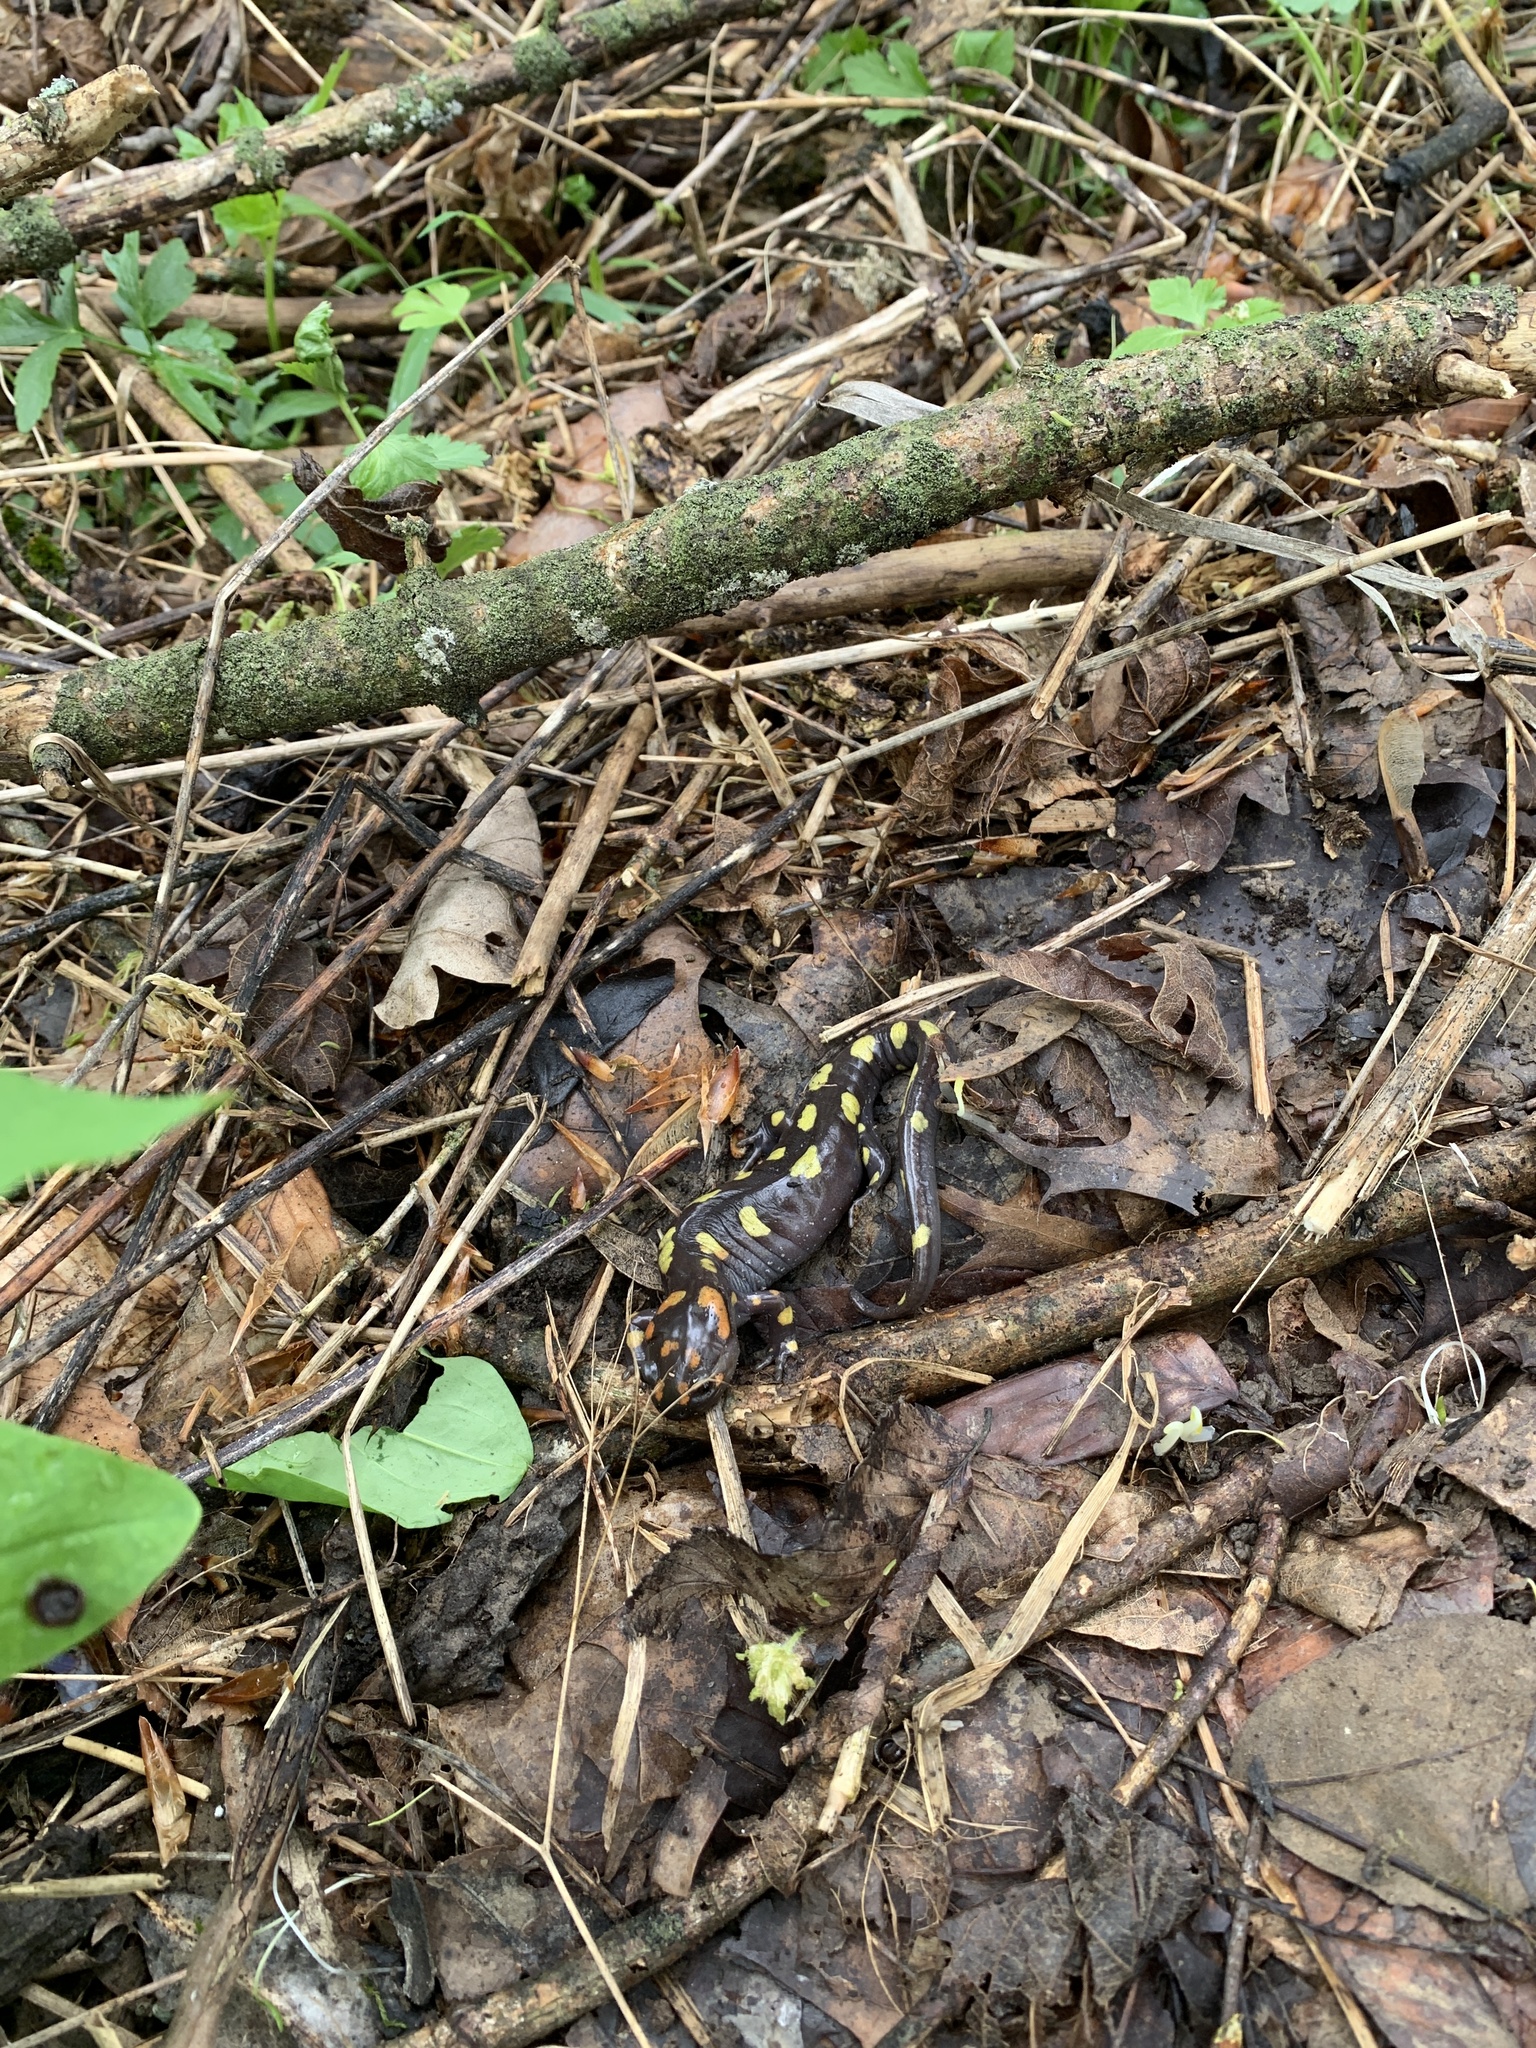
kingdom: Animalia
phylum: Chordata
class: Amphibia
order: Caudata
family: Ambystomatidae
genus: Ambystoma
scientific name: Ambystoma maculatum
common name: Spotted salamander
